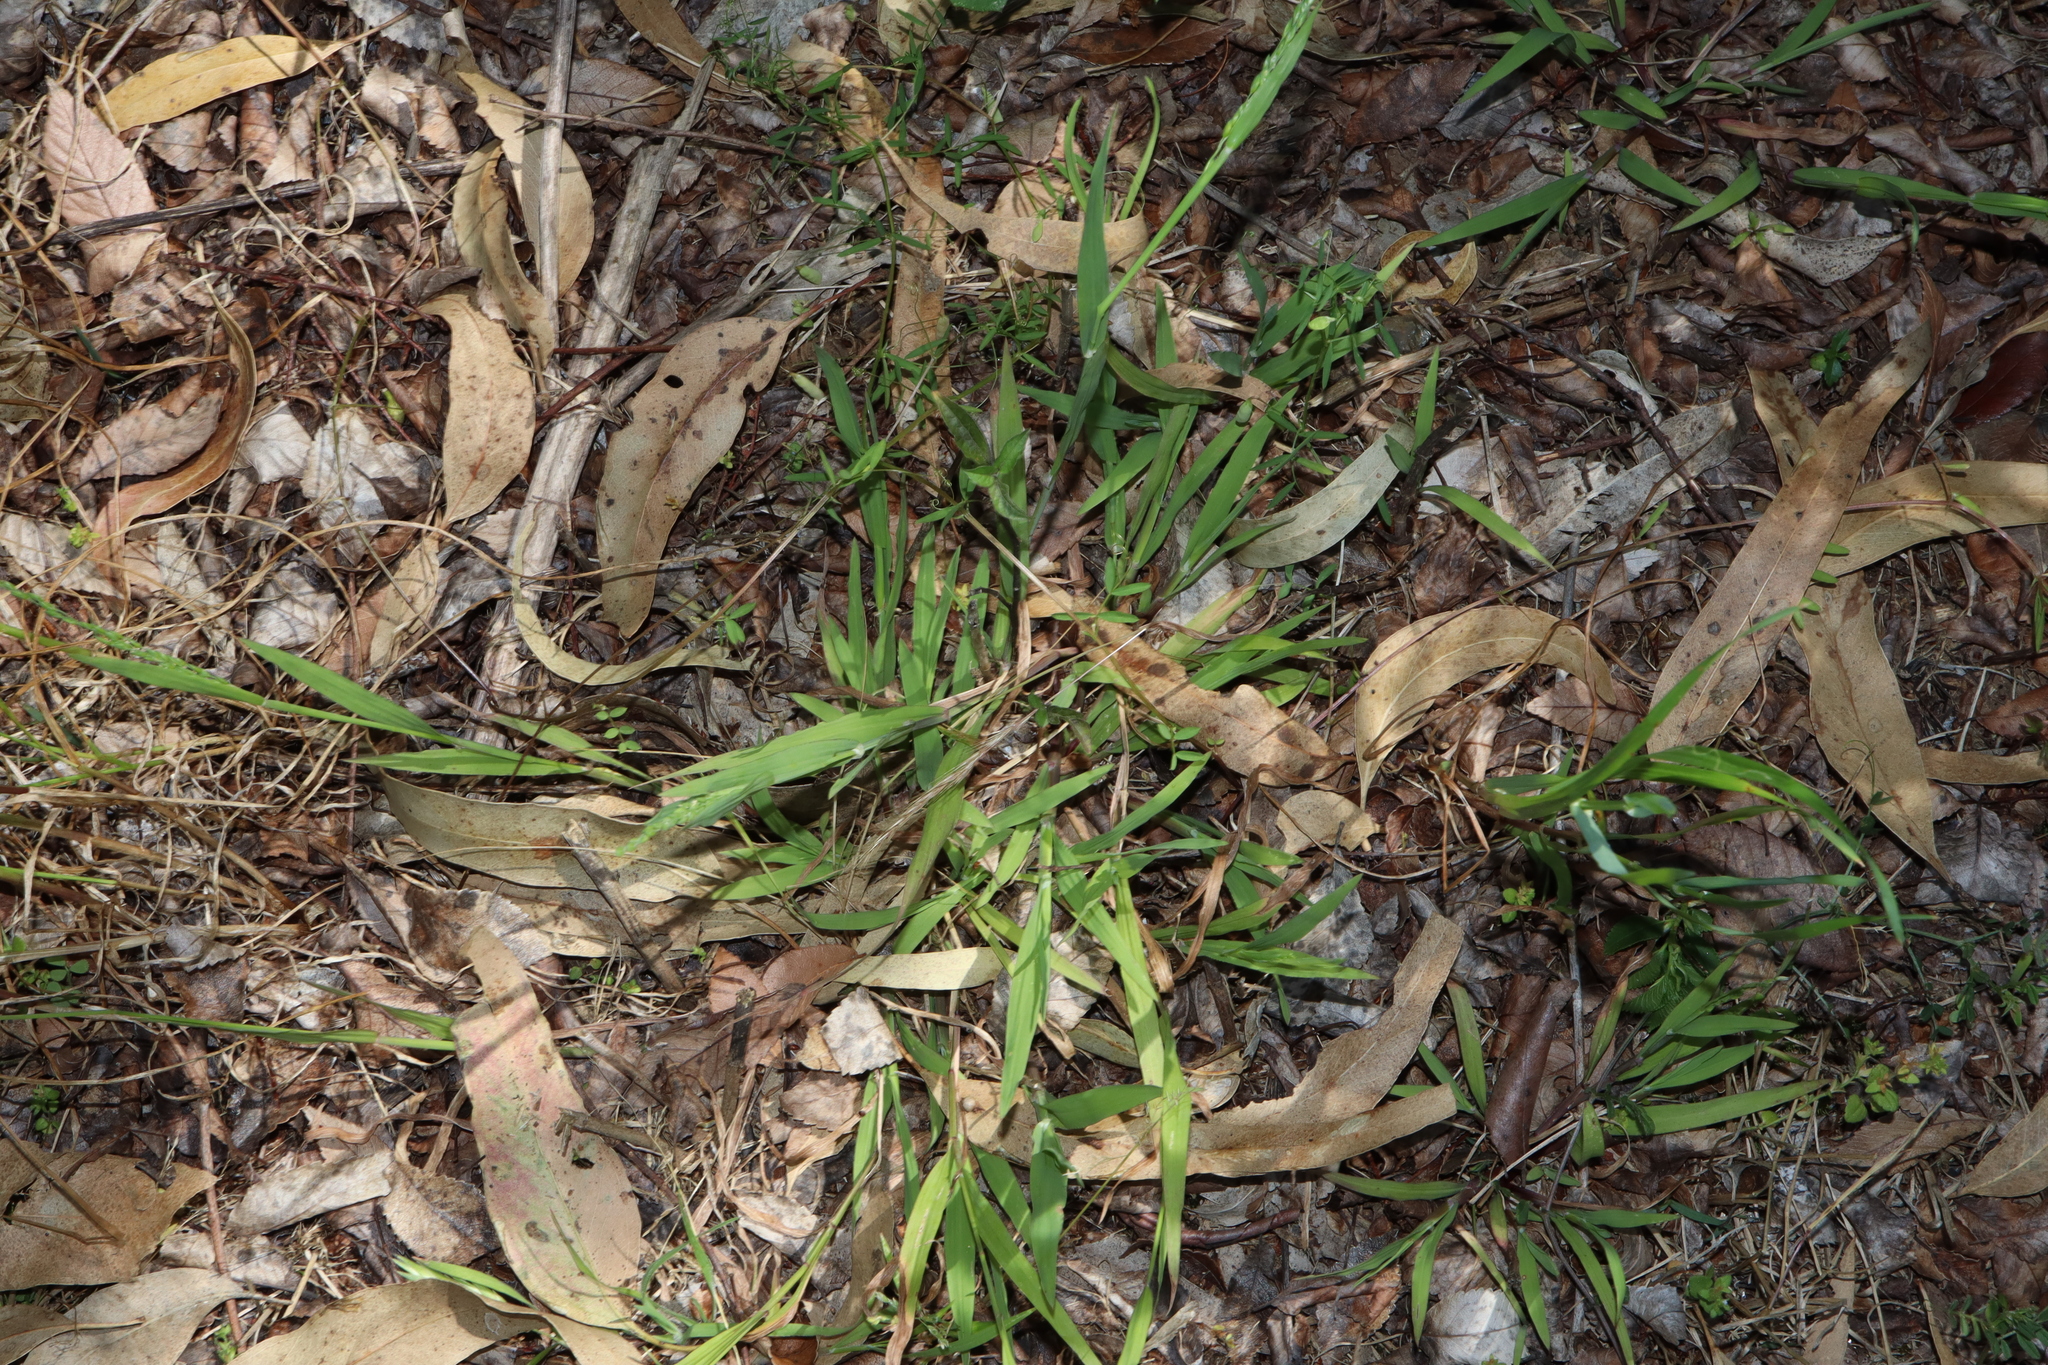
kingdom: Plantae
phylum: Tracheophyta
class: Liliopsida
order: Poales
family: Poaceae
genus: Ehrharta
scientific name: Ehrharta erecta
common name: Panic veldtgrass
